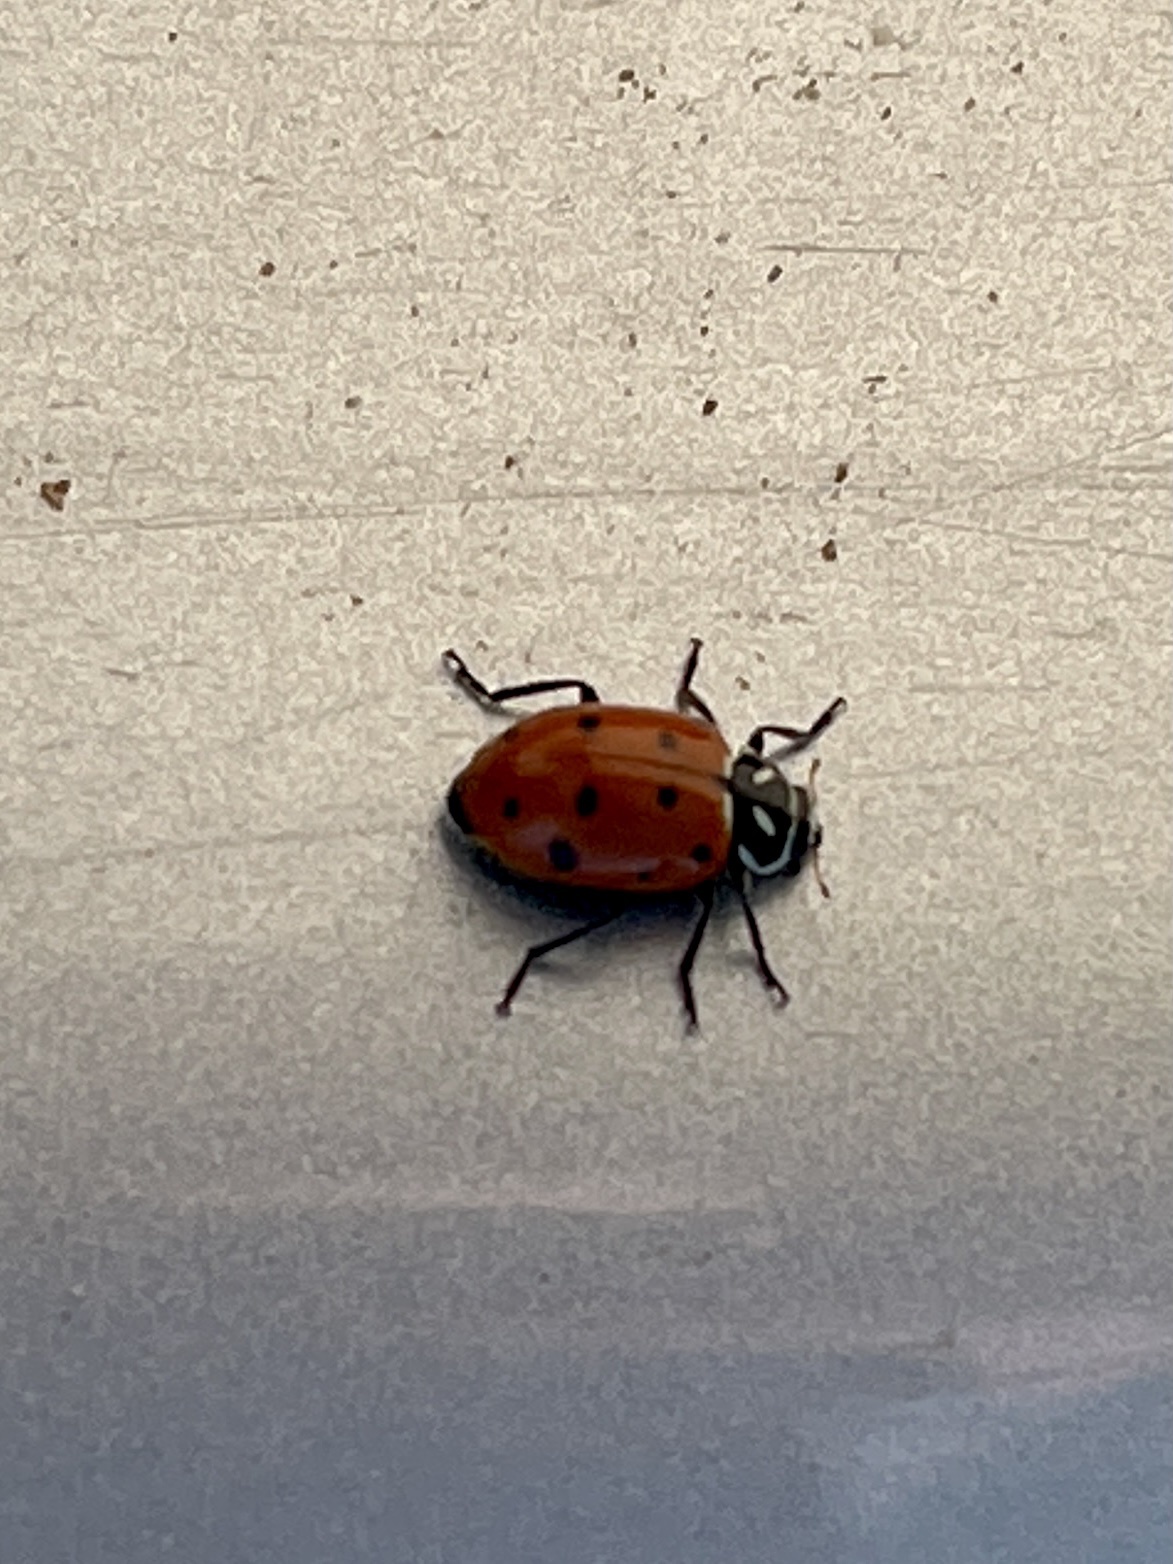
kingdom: Animalia
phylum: Arthropoda
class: Insecta
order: Coleoptera
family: Coccinellidae
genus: Hippodamia
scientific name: Hippodamia convergens
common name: Convergent lady beetle
